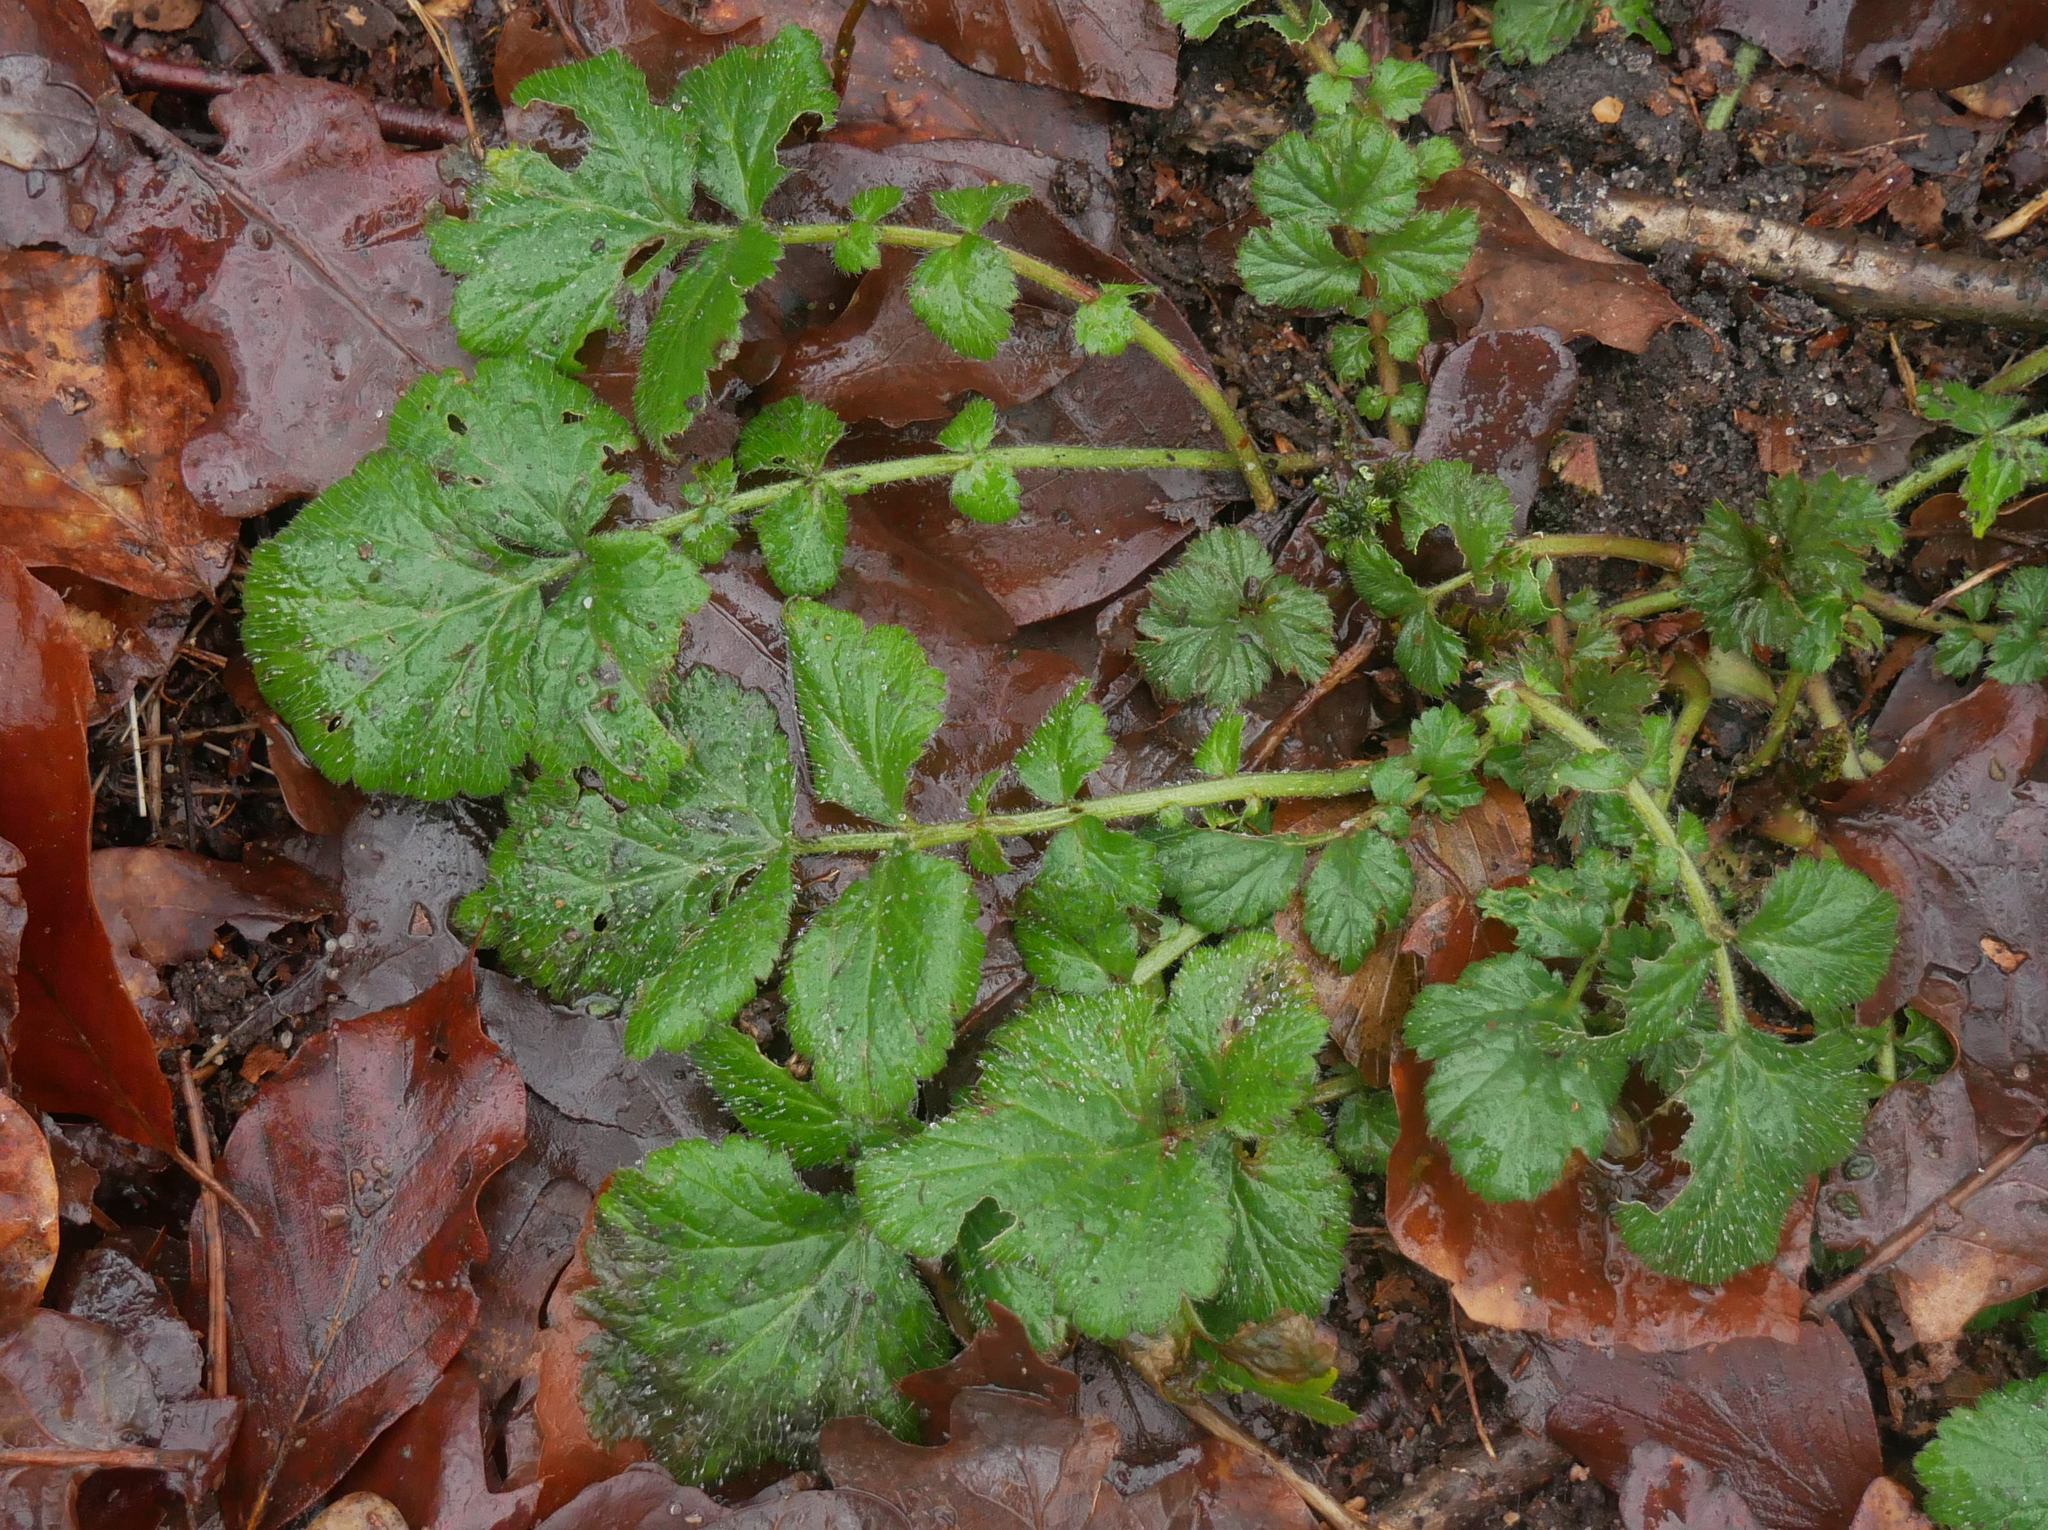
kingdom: Plantae
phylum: Tracheophyta
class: Magnoliopsida
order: Rosales
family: Rosaceae
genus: Geum
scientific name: Geum urbanum
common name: Wood avens
